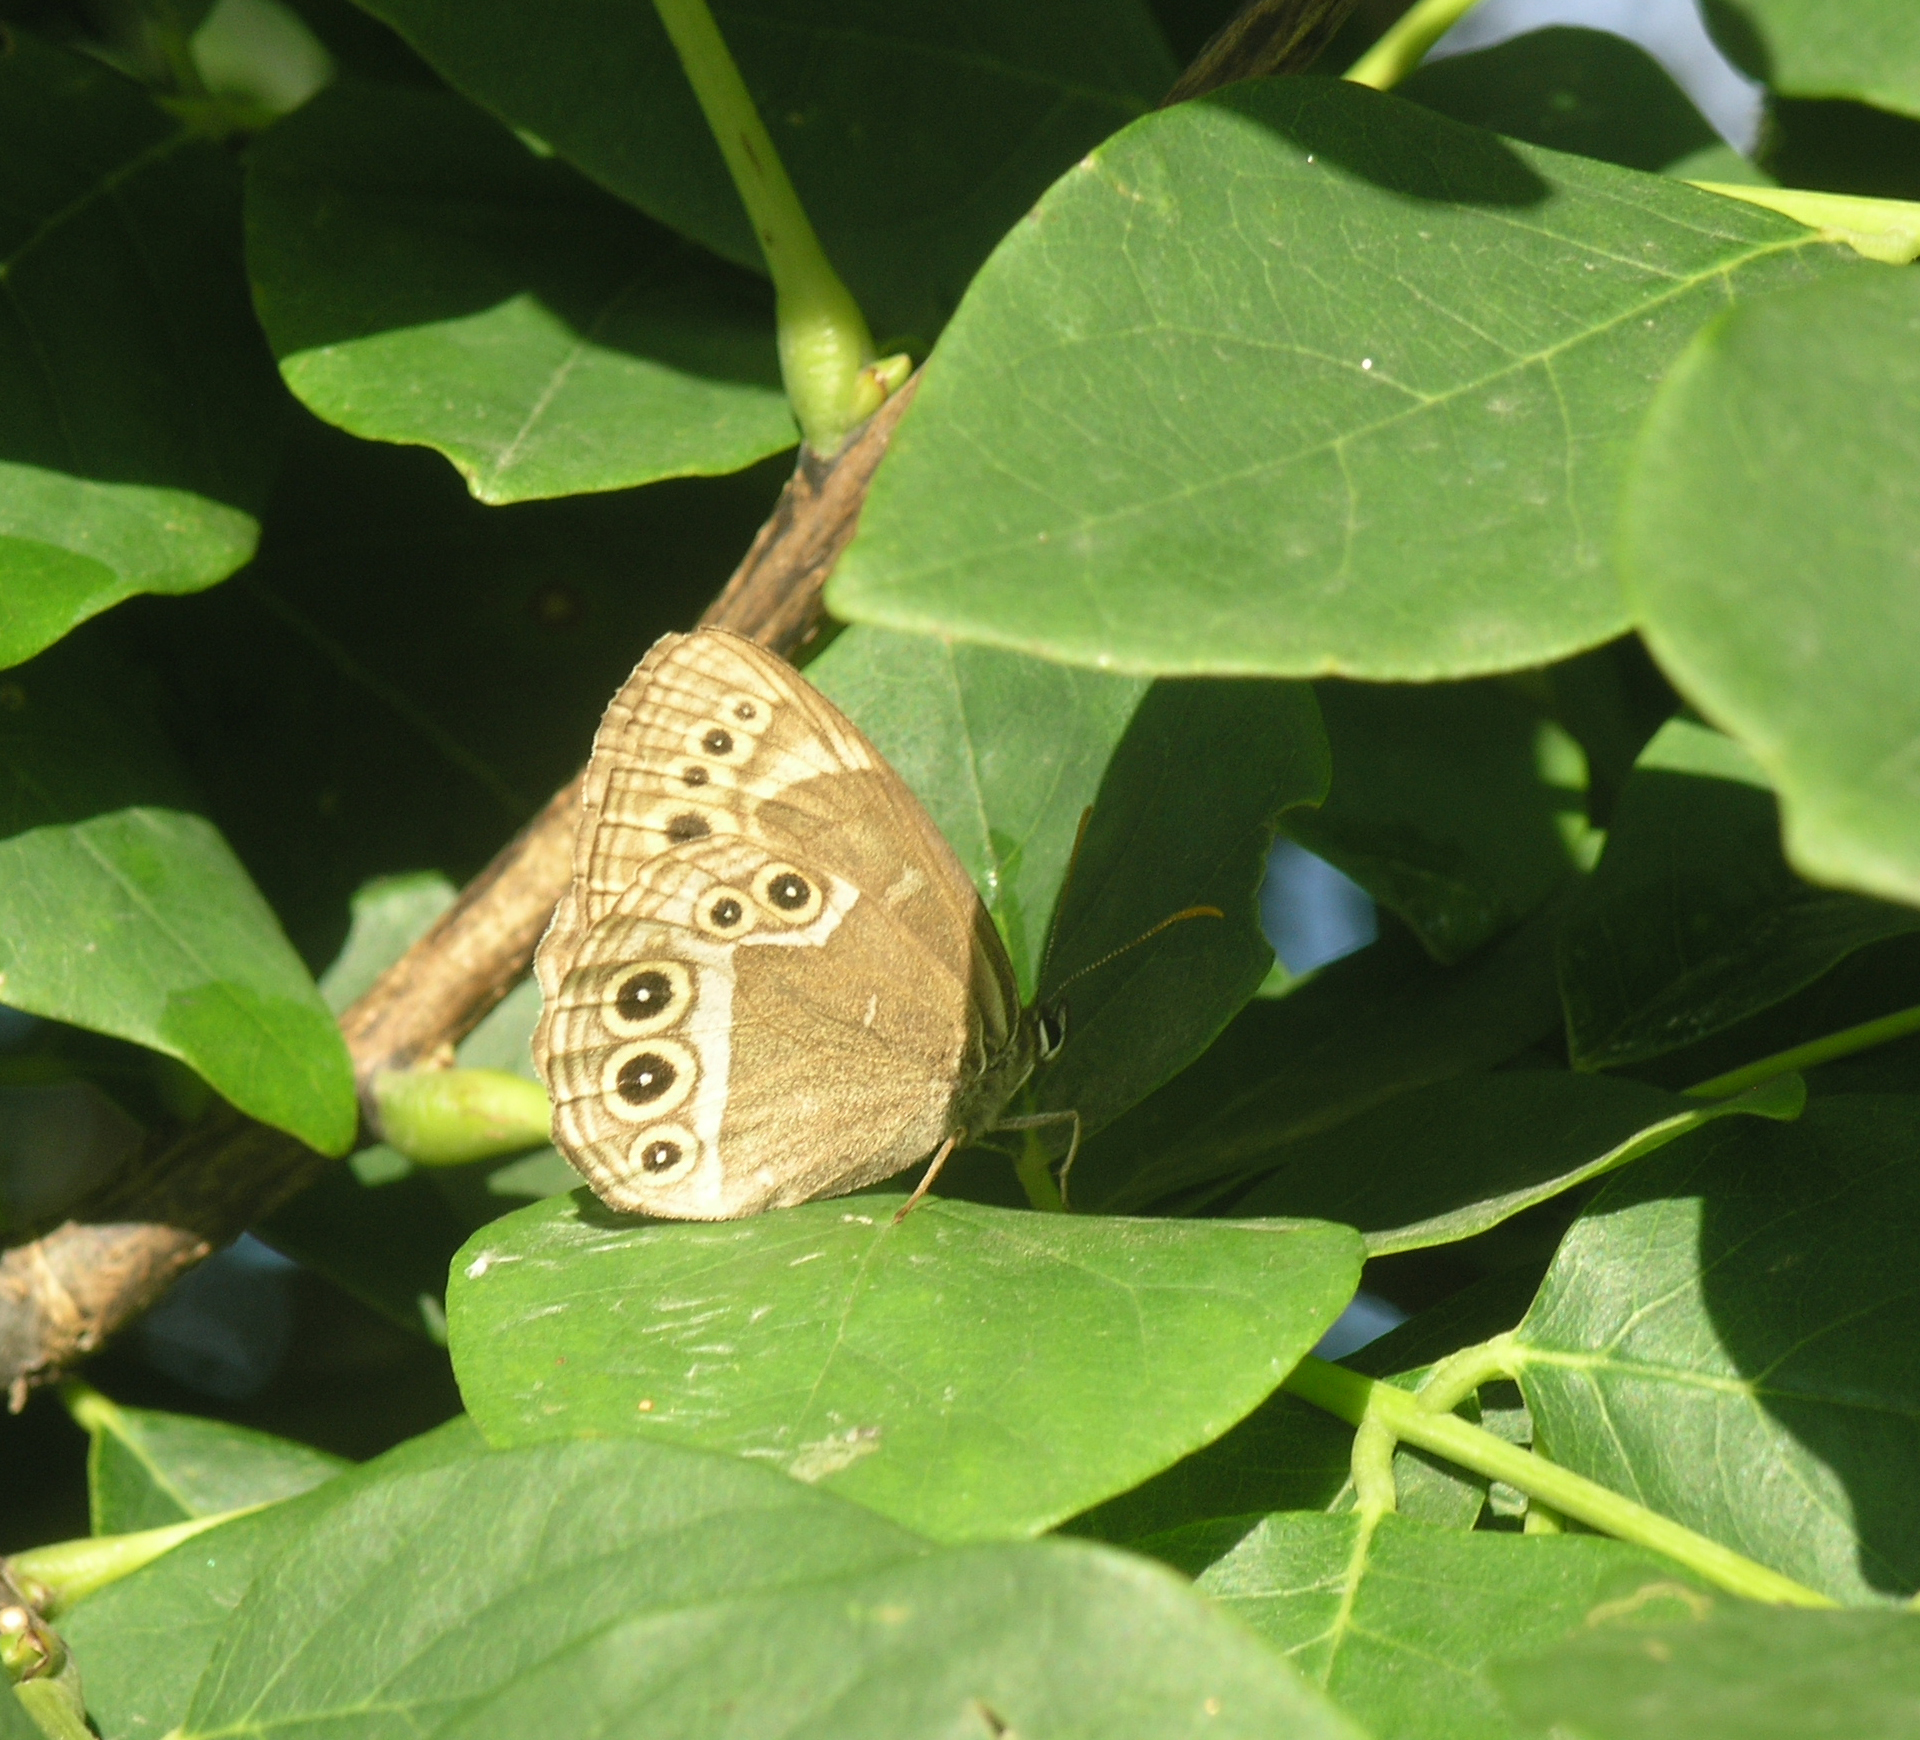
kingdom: Animalia
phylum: Arthropoda
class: Insecta
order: Lepidoptera
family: Nymphalidae
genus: Pararge
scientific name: Pararge Lopinga achine
